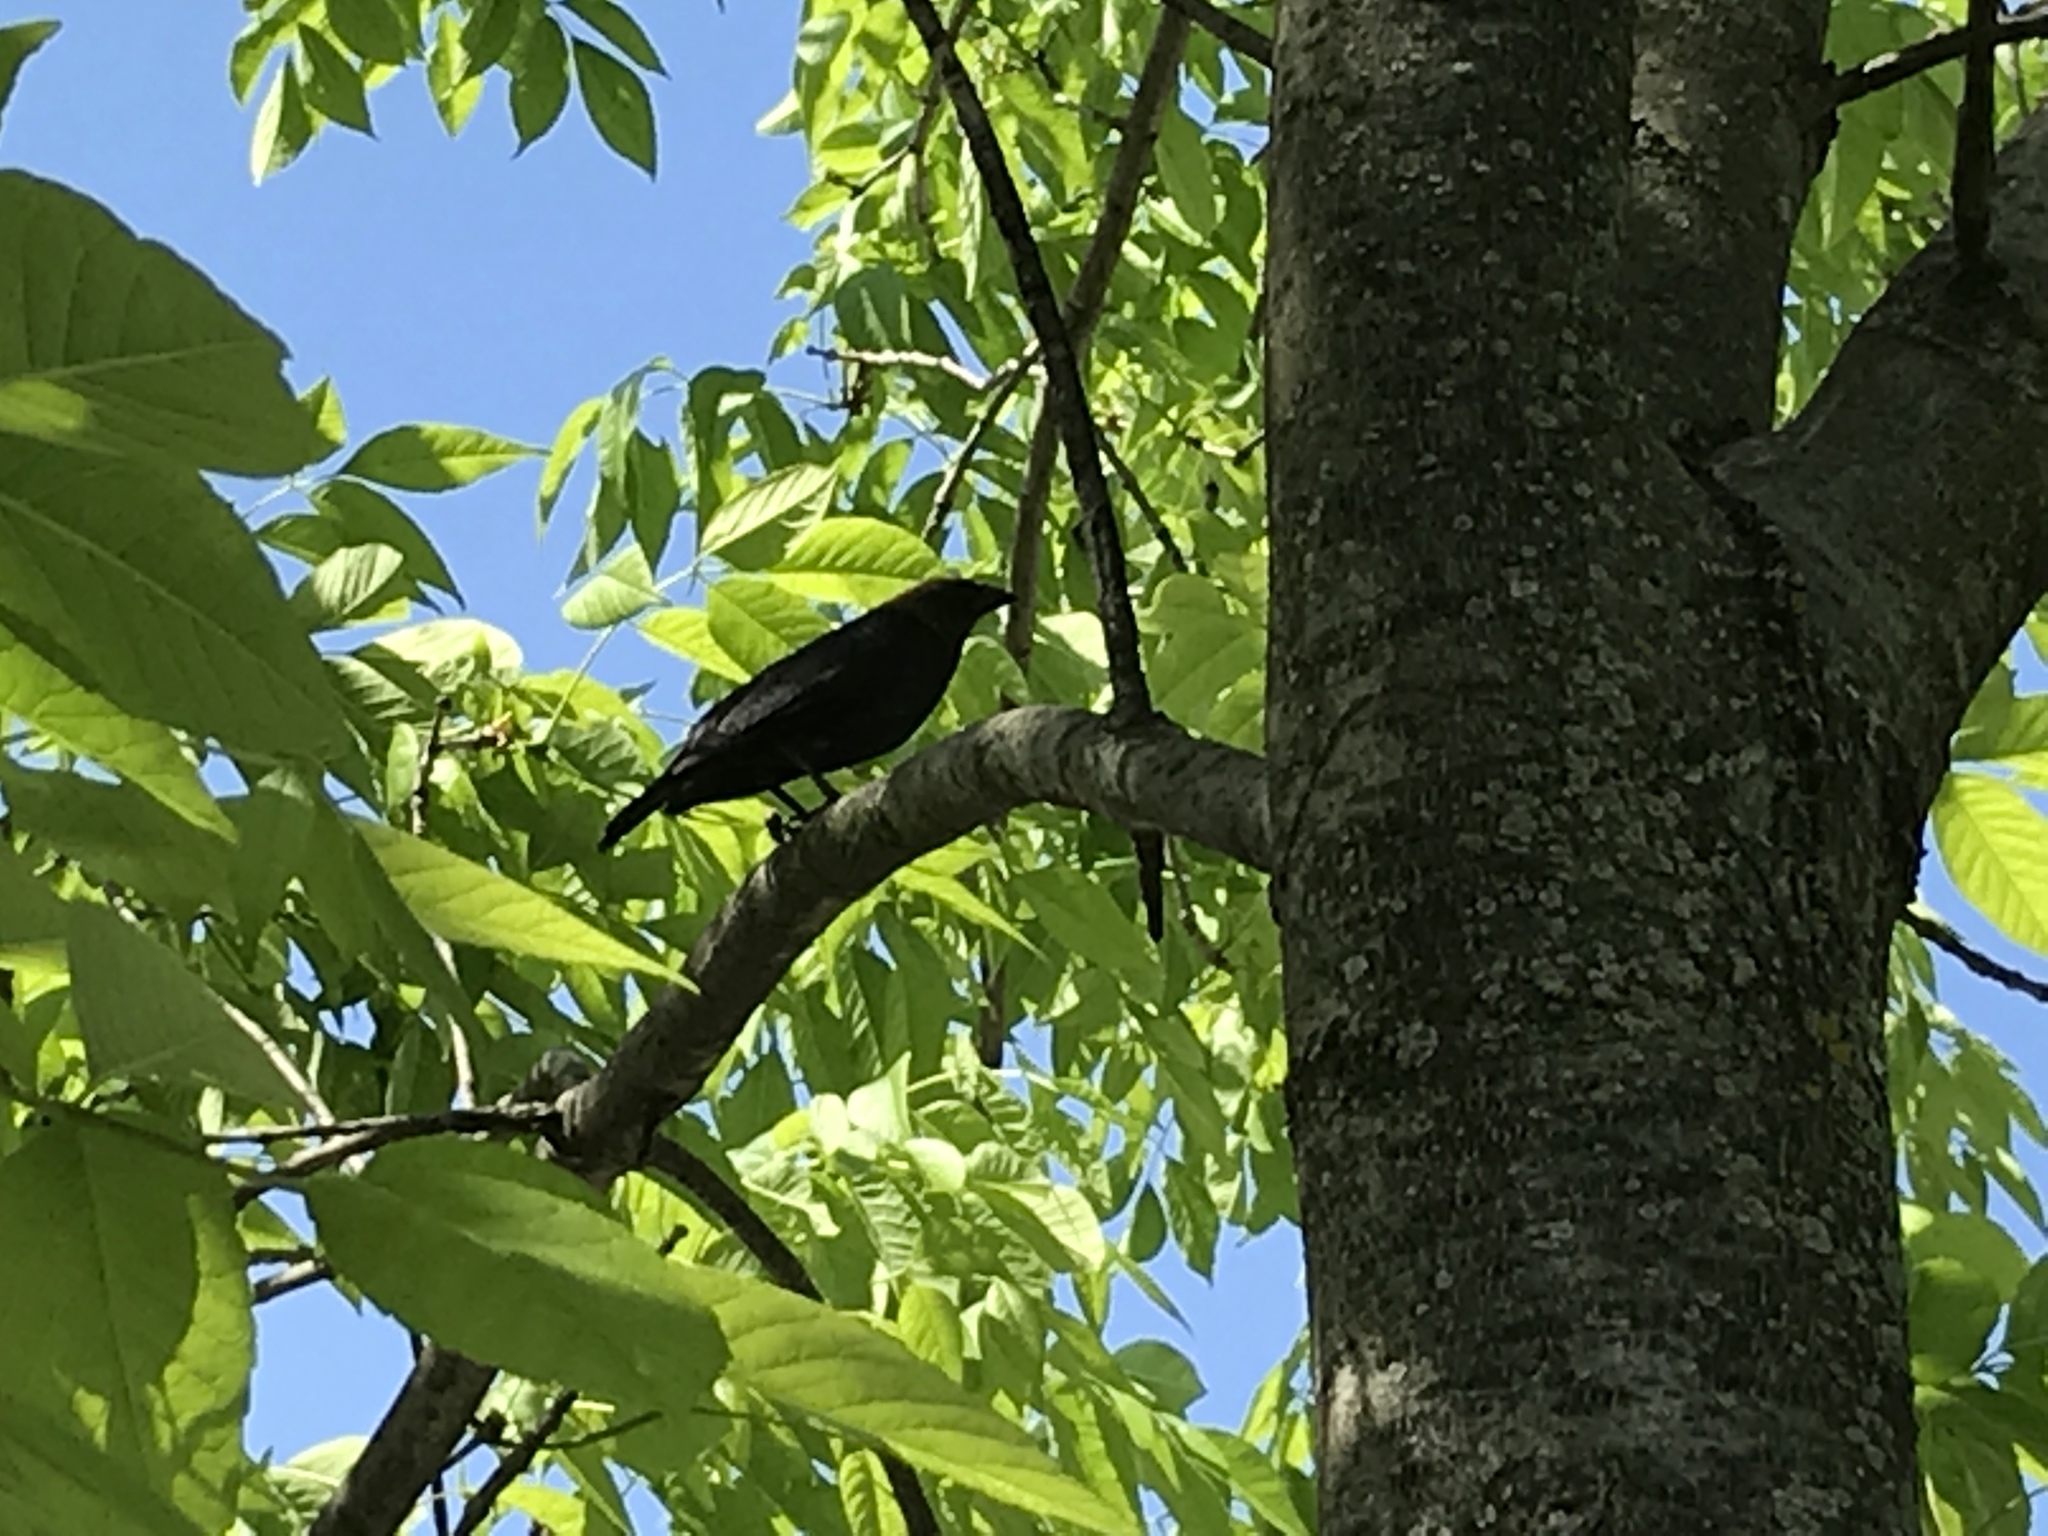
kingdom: Animalia
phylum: Chordata
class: Aves
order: Passeriformes
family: Icteridae
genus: Molothrus
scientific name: Molothrus ater
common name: Brown-headed cowbird
